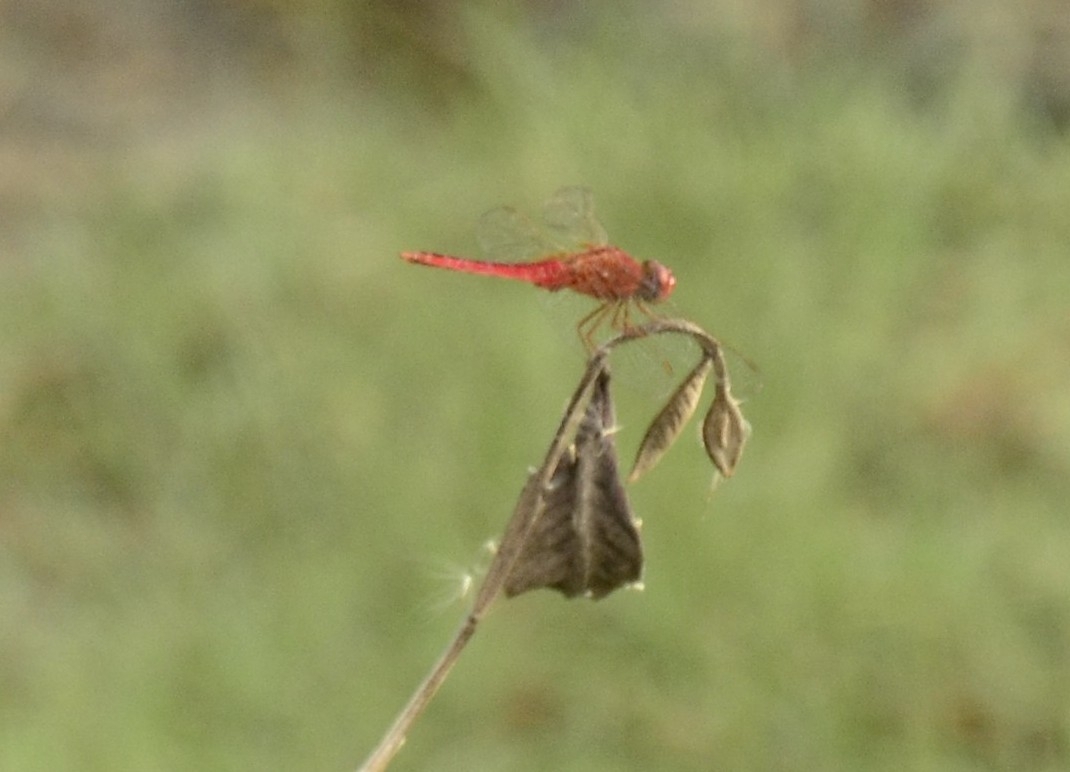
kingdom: Animalia
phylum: Arthropoda
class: Insecta
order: Odonata
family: Libellulidae
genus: Crocothemis
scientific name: Crocothemis servilia
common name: Scarlet skimmer
